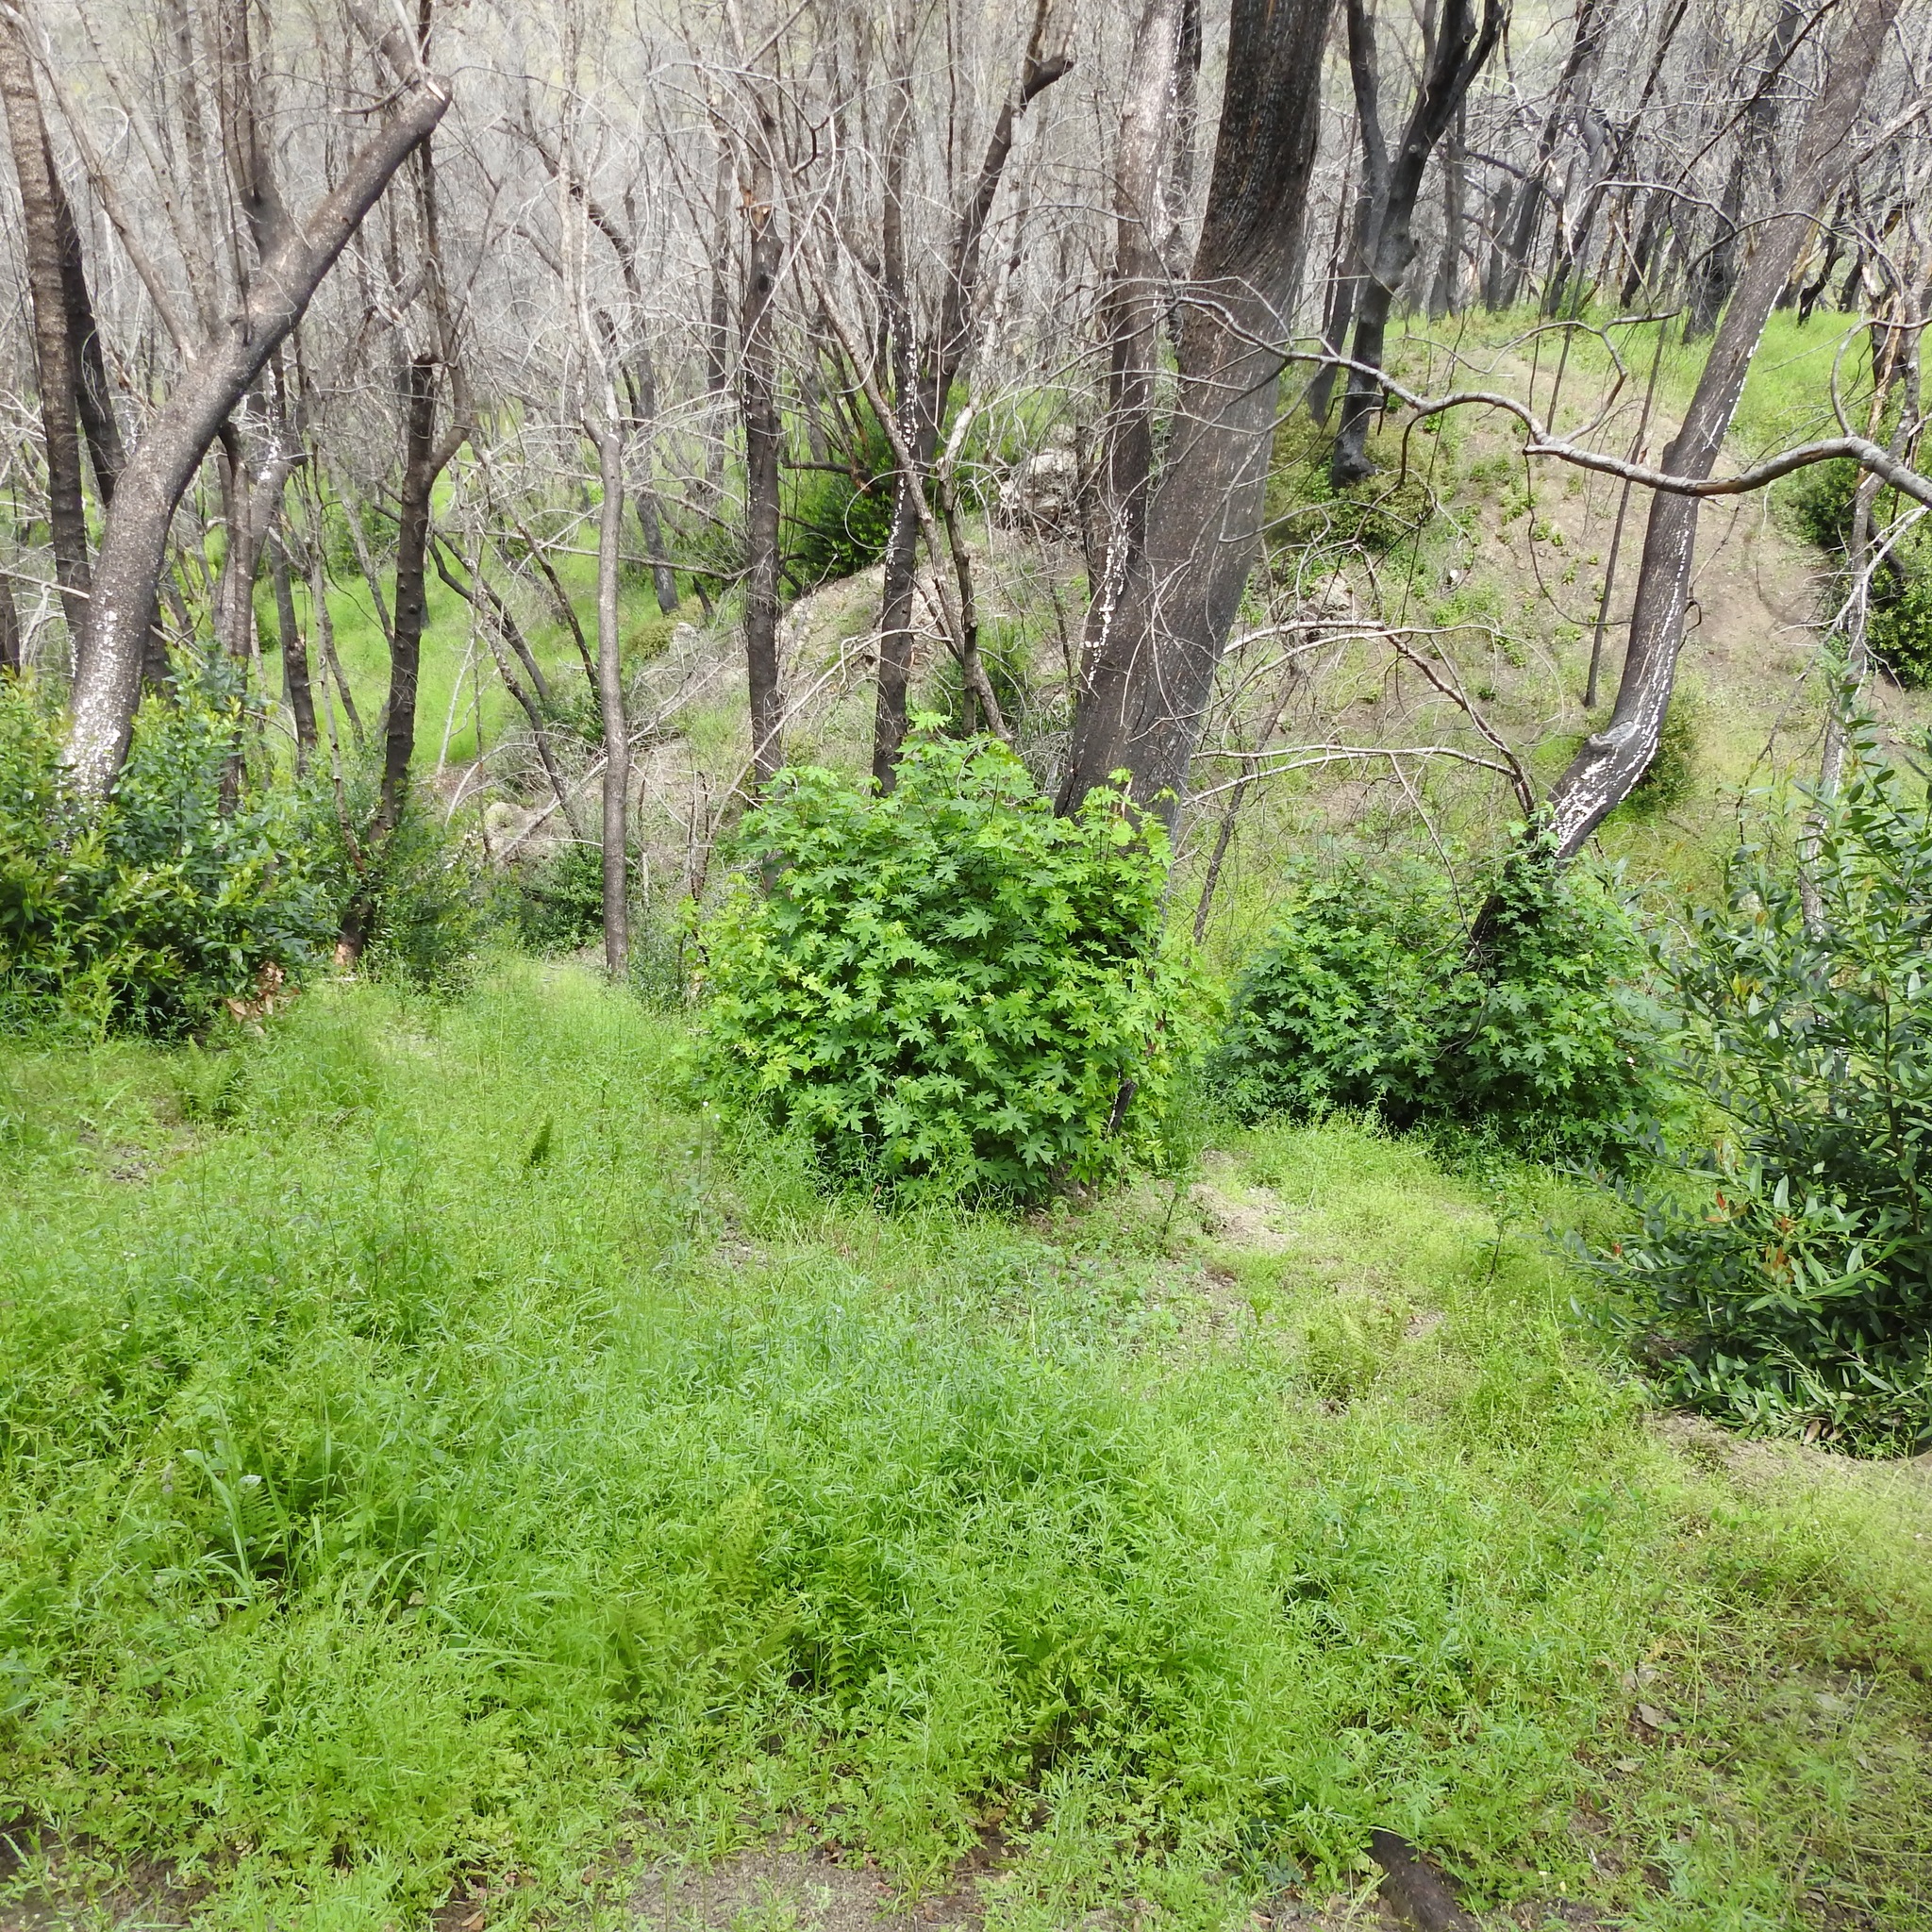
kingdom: Plantae
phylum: Tracheophyta
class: Magnoliopsida
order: Sapindales
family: Sapindaceae
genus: Acer
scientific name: Acer macrophyllum
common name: Oregon maple
